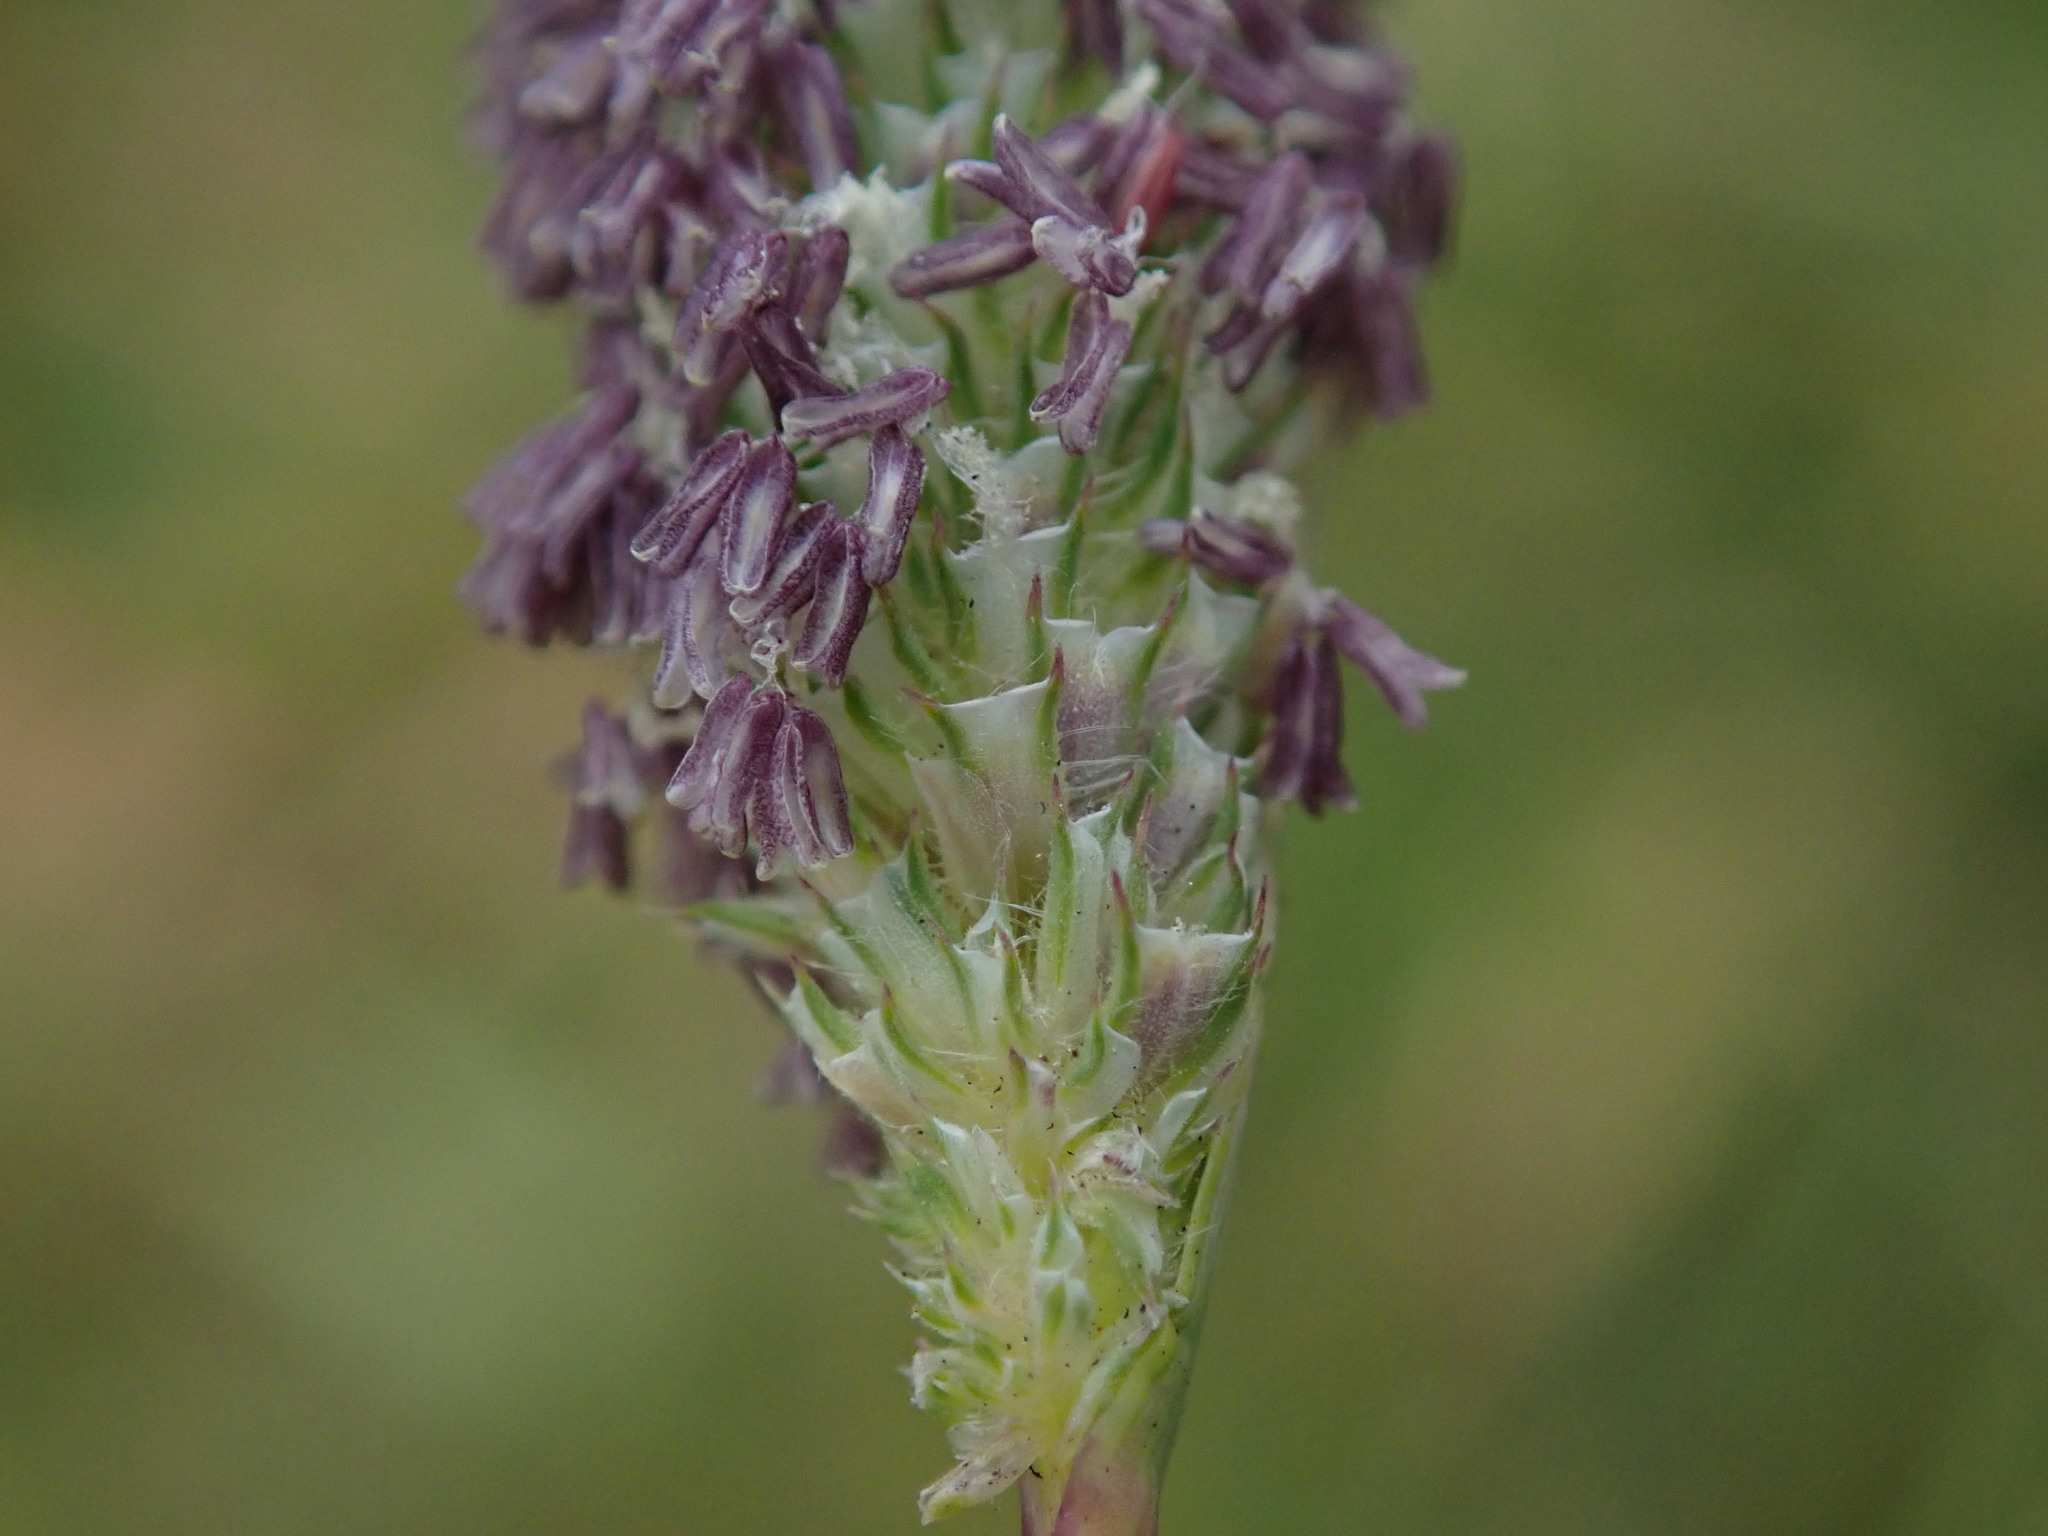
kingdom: Plantae
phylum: Tracheophyta
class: Liliopsida
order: Poales
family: Poaceae
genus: Phleum
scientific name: Phleum pratense
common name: Timothy grass
